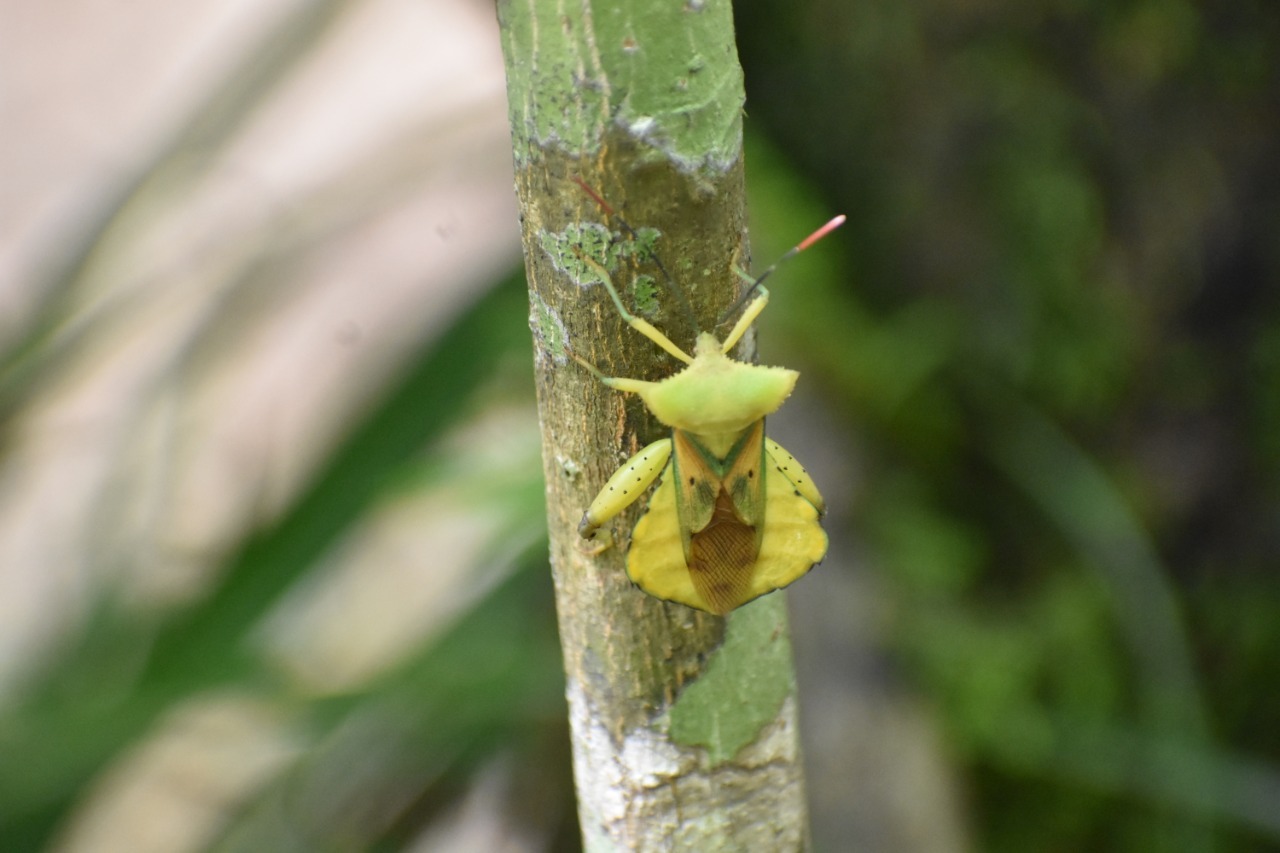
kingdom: Animalia
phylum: Arthropoda
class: Insecta
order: Hemiptera
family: Coreidae
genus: Mozena
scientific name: Mozena lutea
